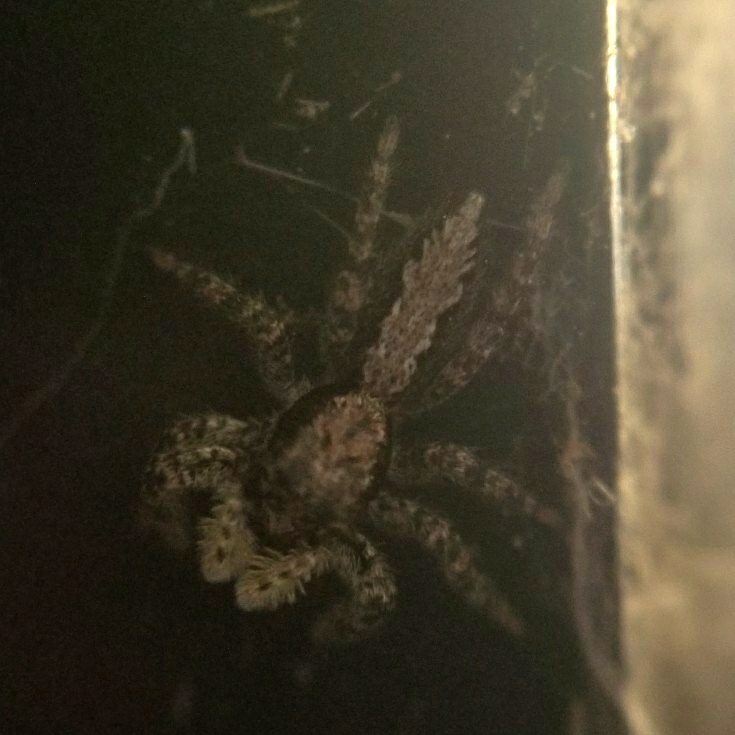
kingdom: Animalia
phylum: Arthropoda
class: Arachnida
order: Araneae
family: Salticidae
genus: Platycryptus
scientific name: Platycryptus californicus
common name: Jumping spiders
